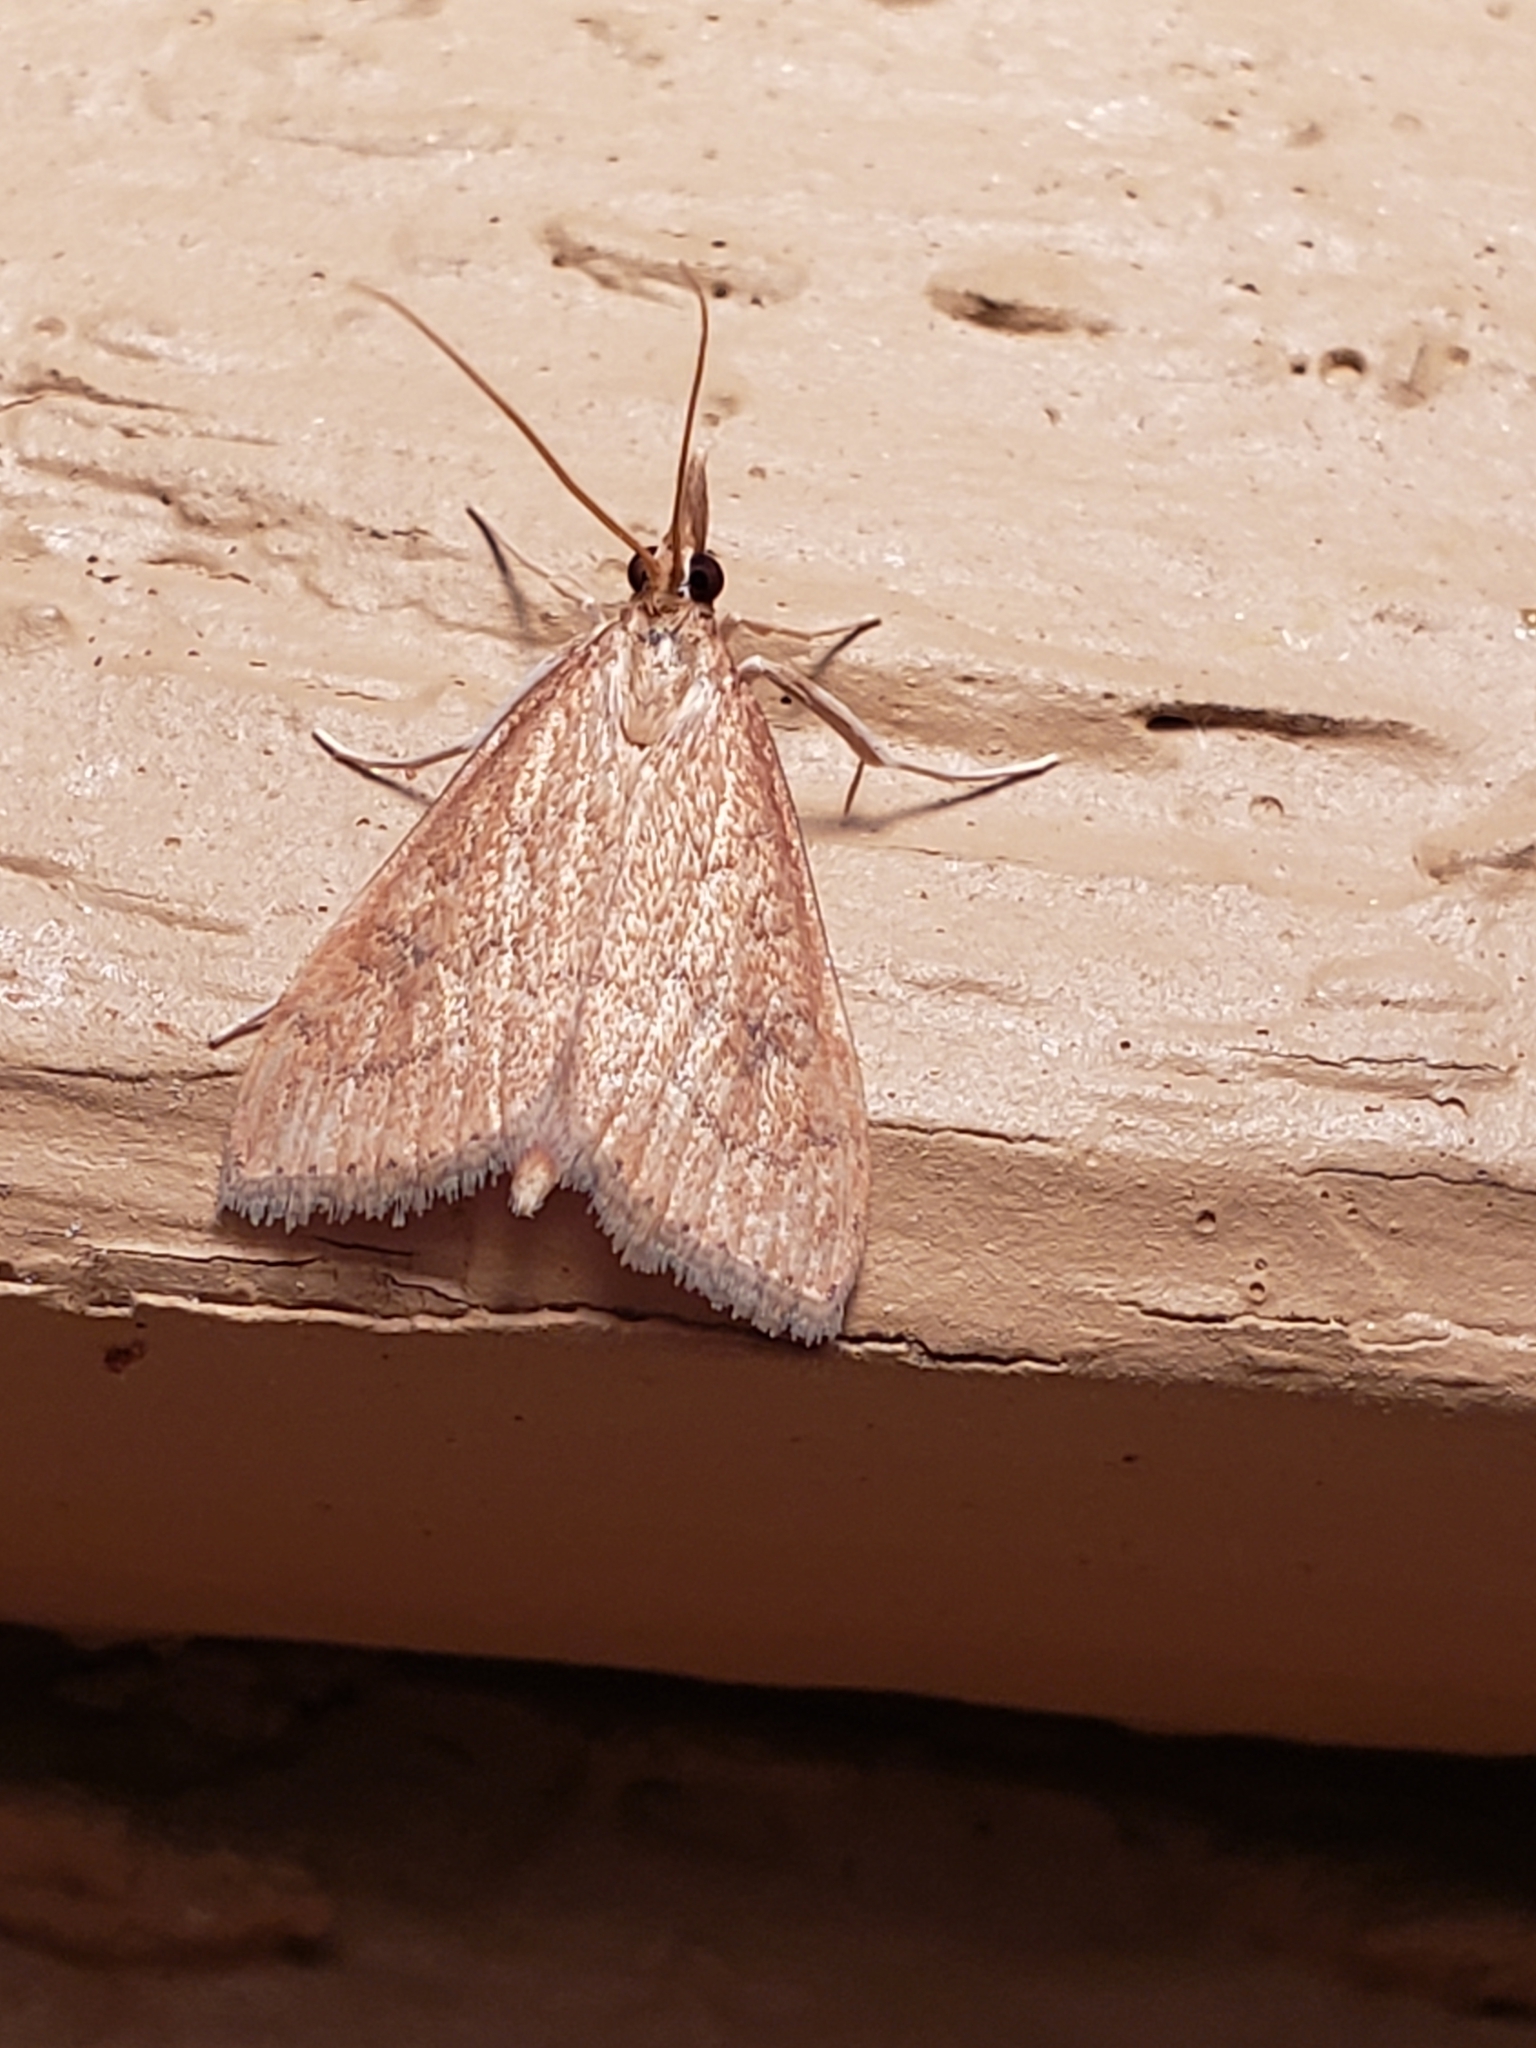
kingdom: Animalia
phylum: Arthropoda
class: Insecta
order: Lepidoptera
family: Crambidae
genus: Udea
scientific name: Udea rubigalis
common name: Celery leaftier moth
